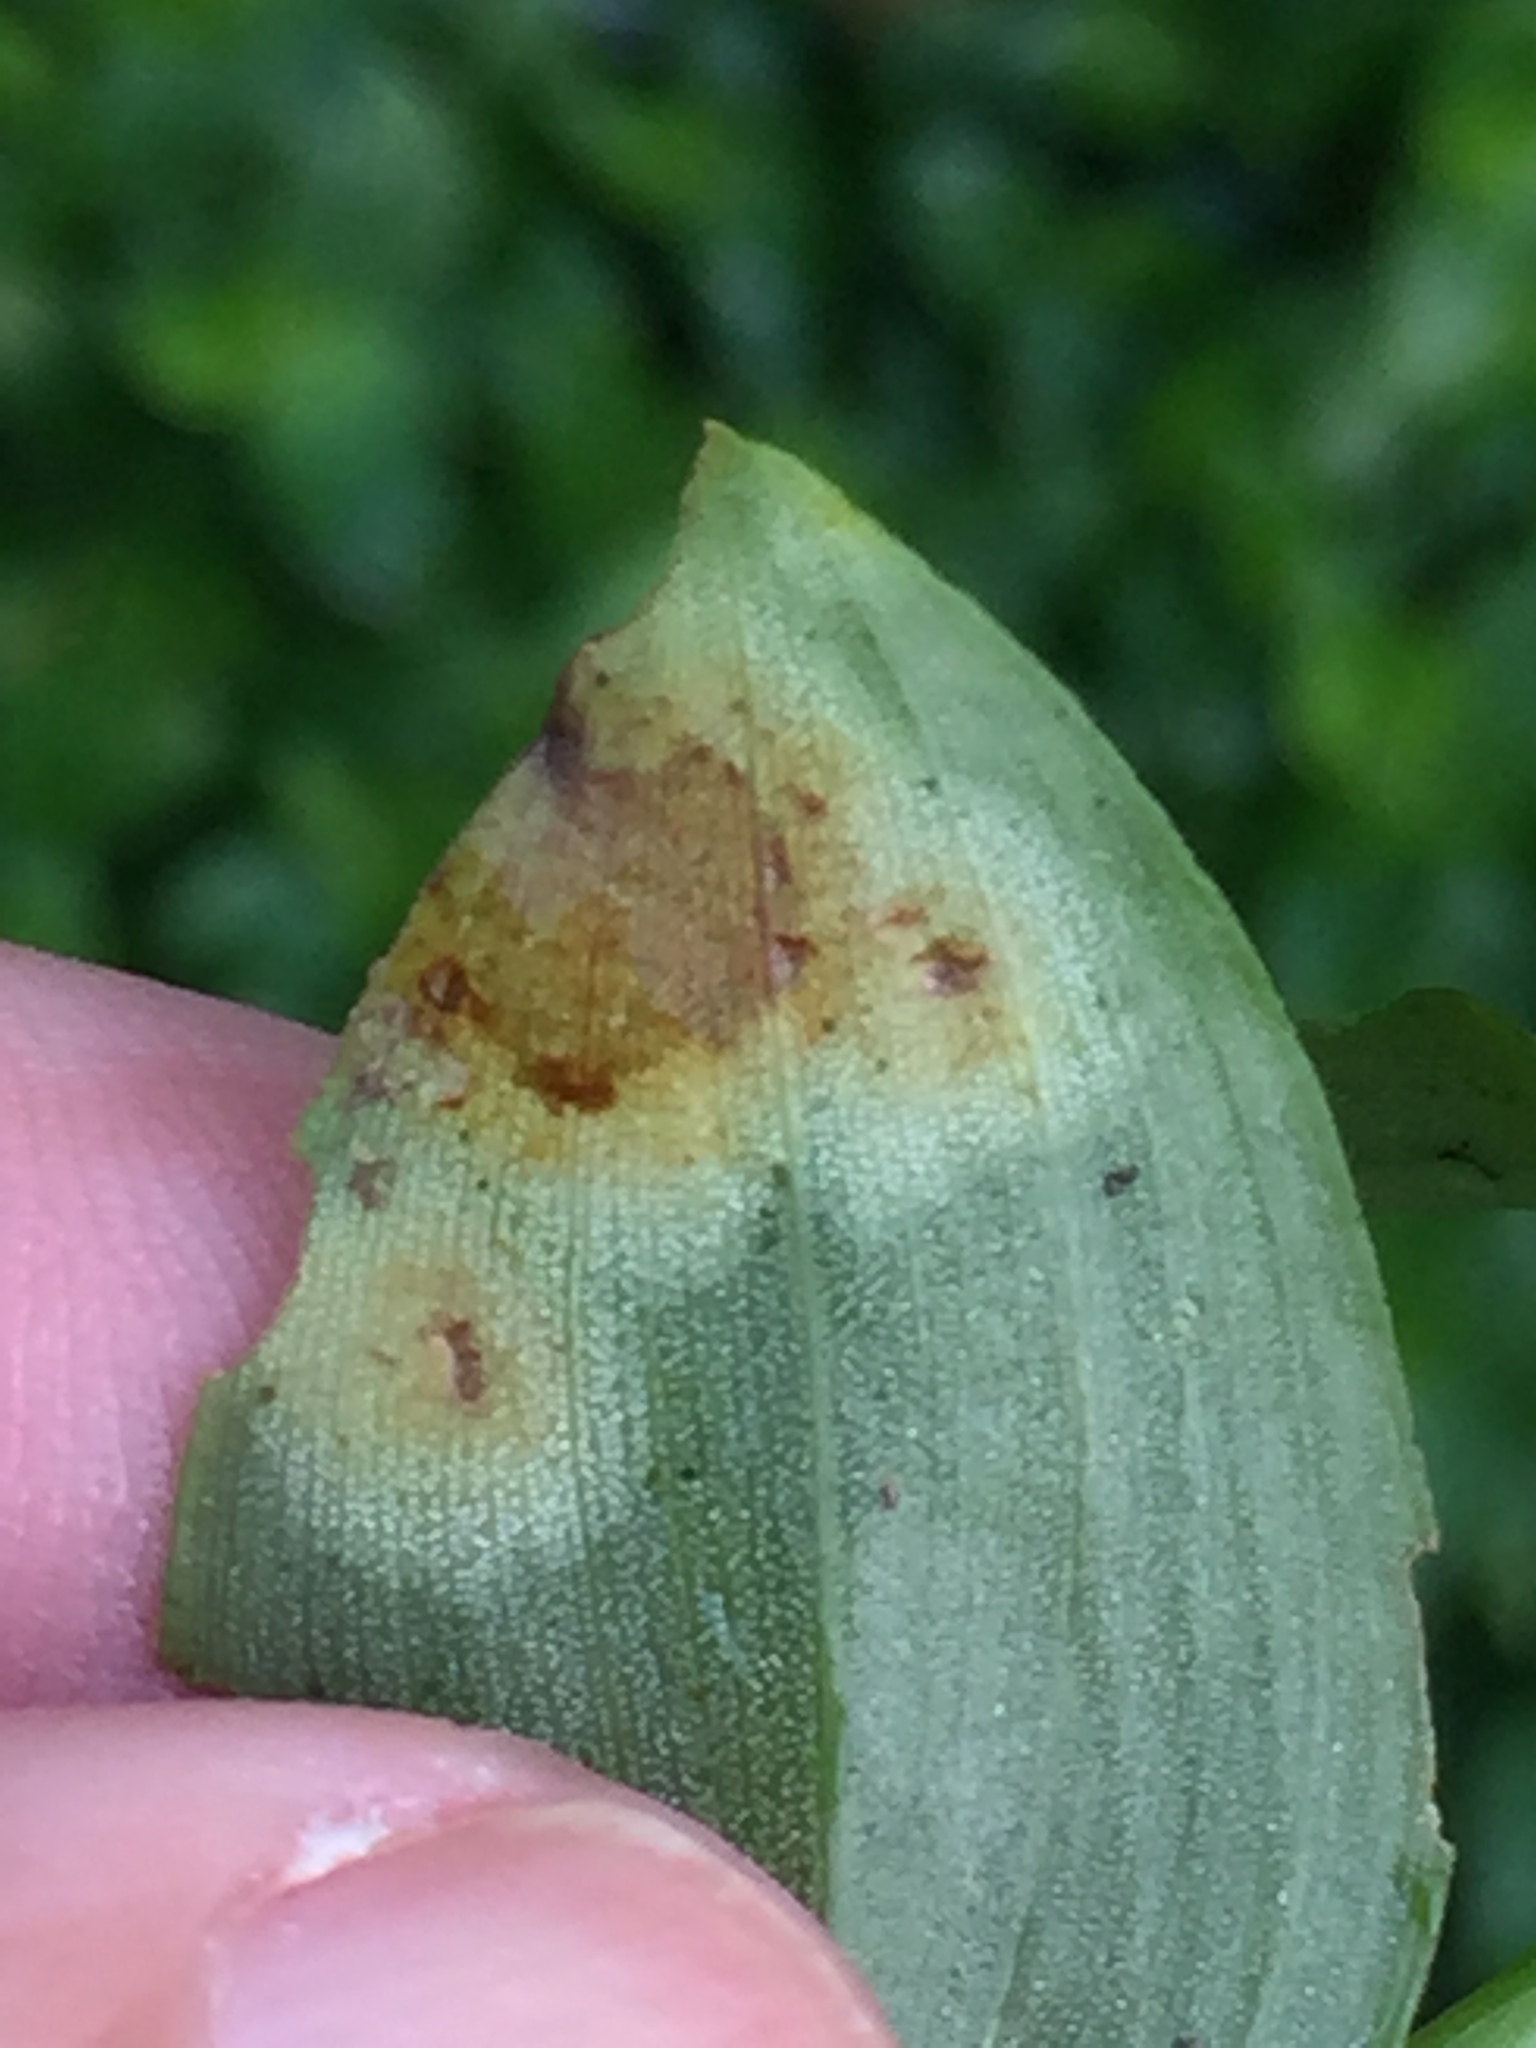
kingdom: Fungi
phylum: Basidiomycota
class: Exobasidiomycetes
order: Exobasidiales
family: Brachybasidiaceae
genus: Kordyana
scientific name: Kordyana brasiliensis
